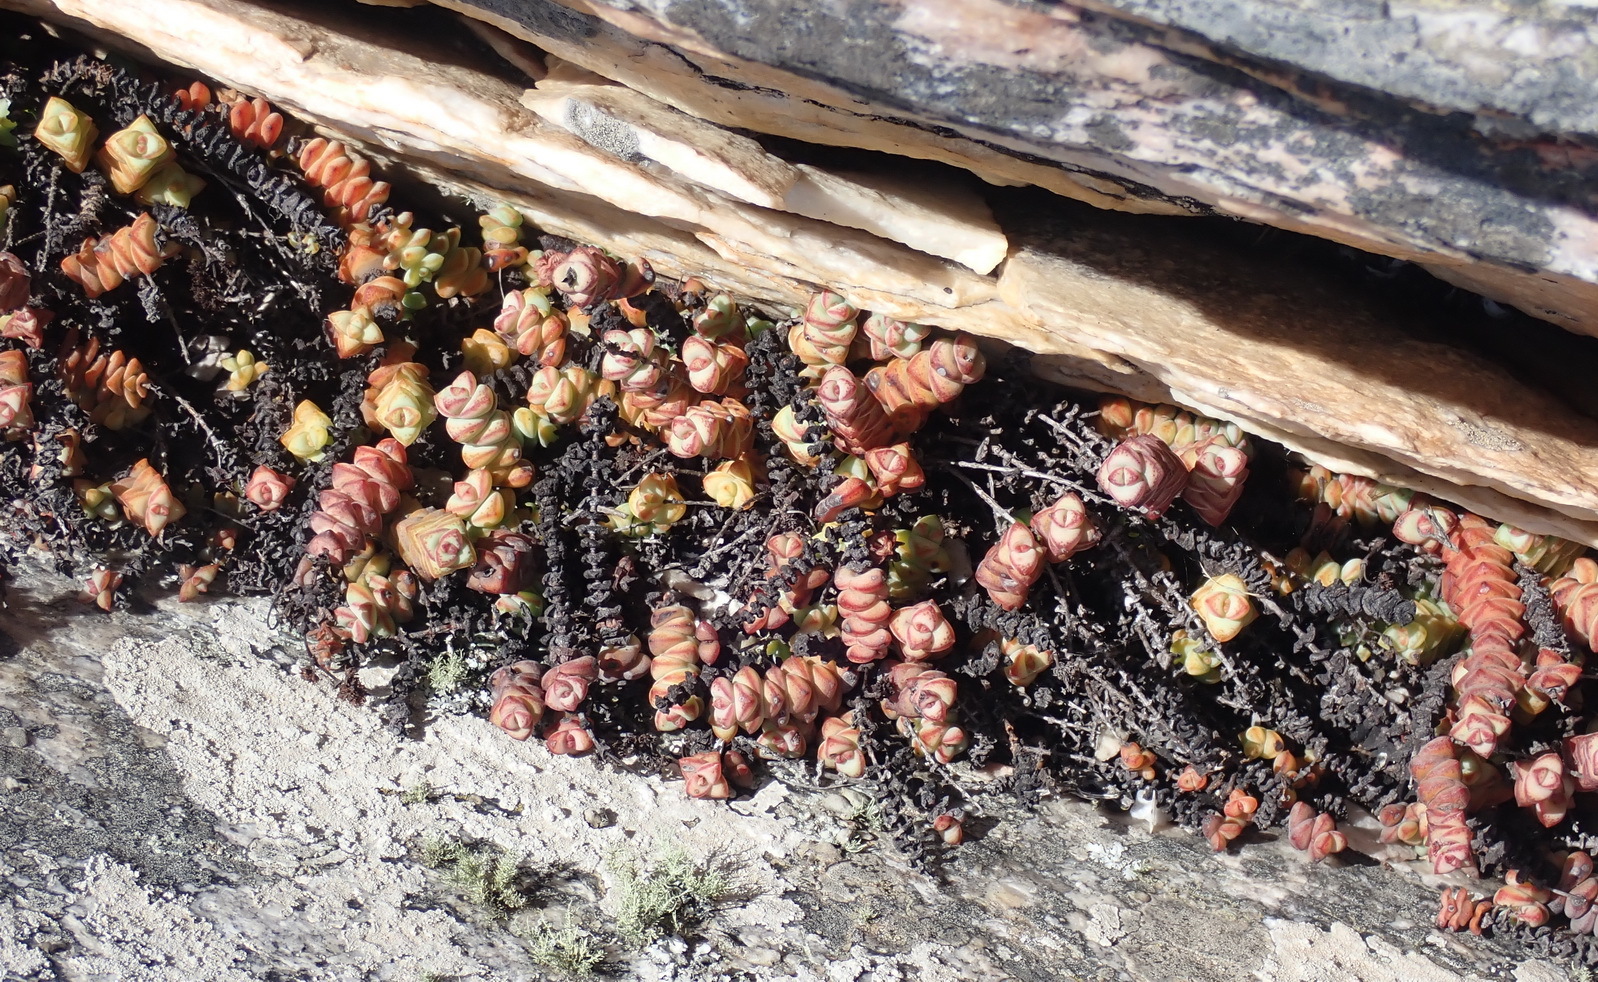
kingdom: Plantae
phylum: Tracheophyta
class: Magnoliopsida
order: Saxifragales
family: Crassulaceae
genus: Crassula
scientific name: Crassula perforata
